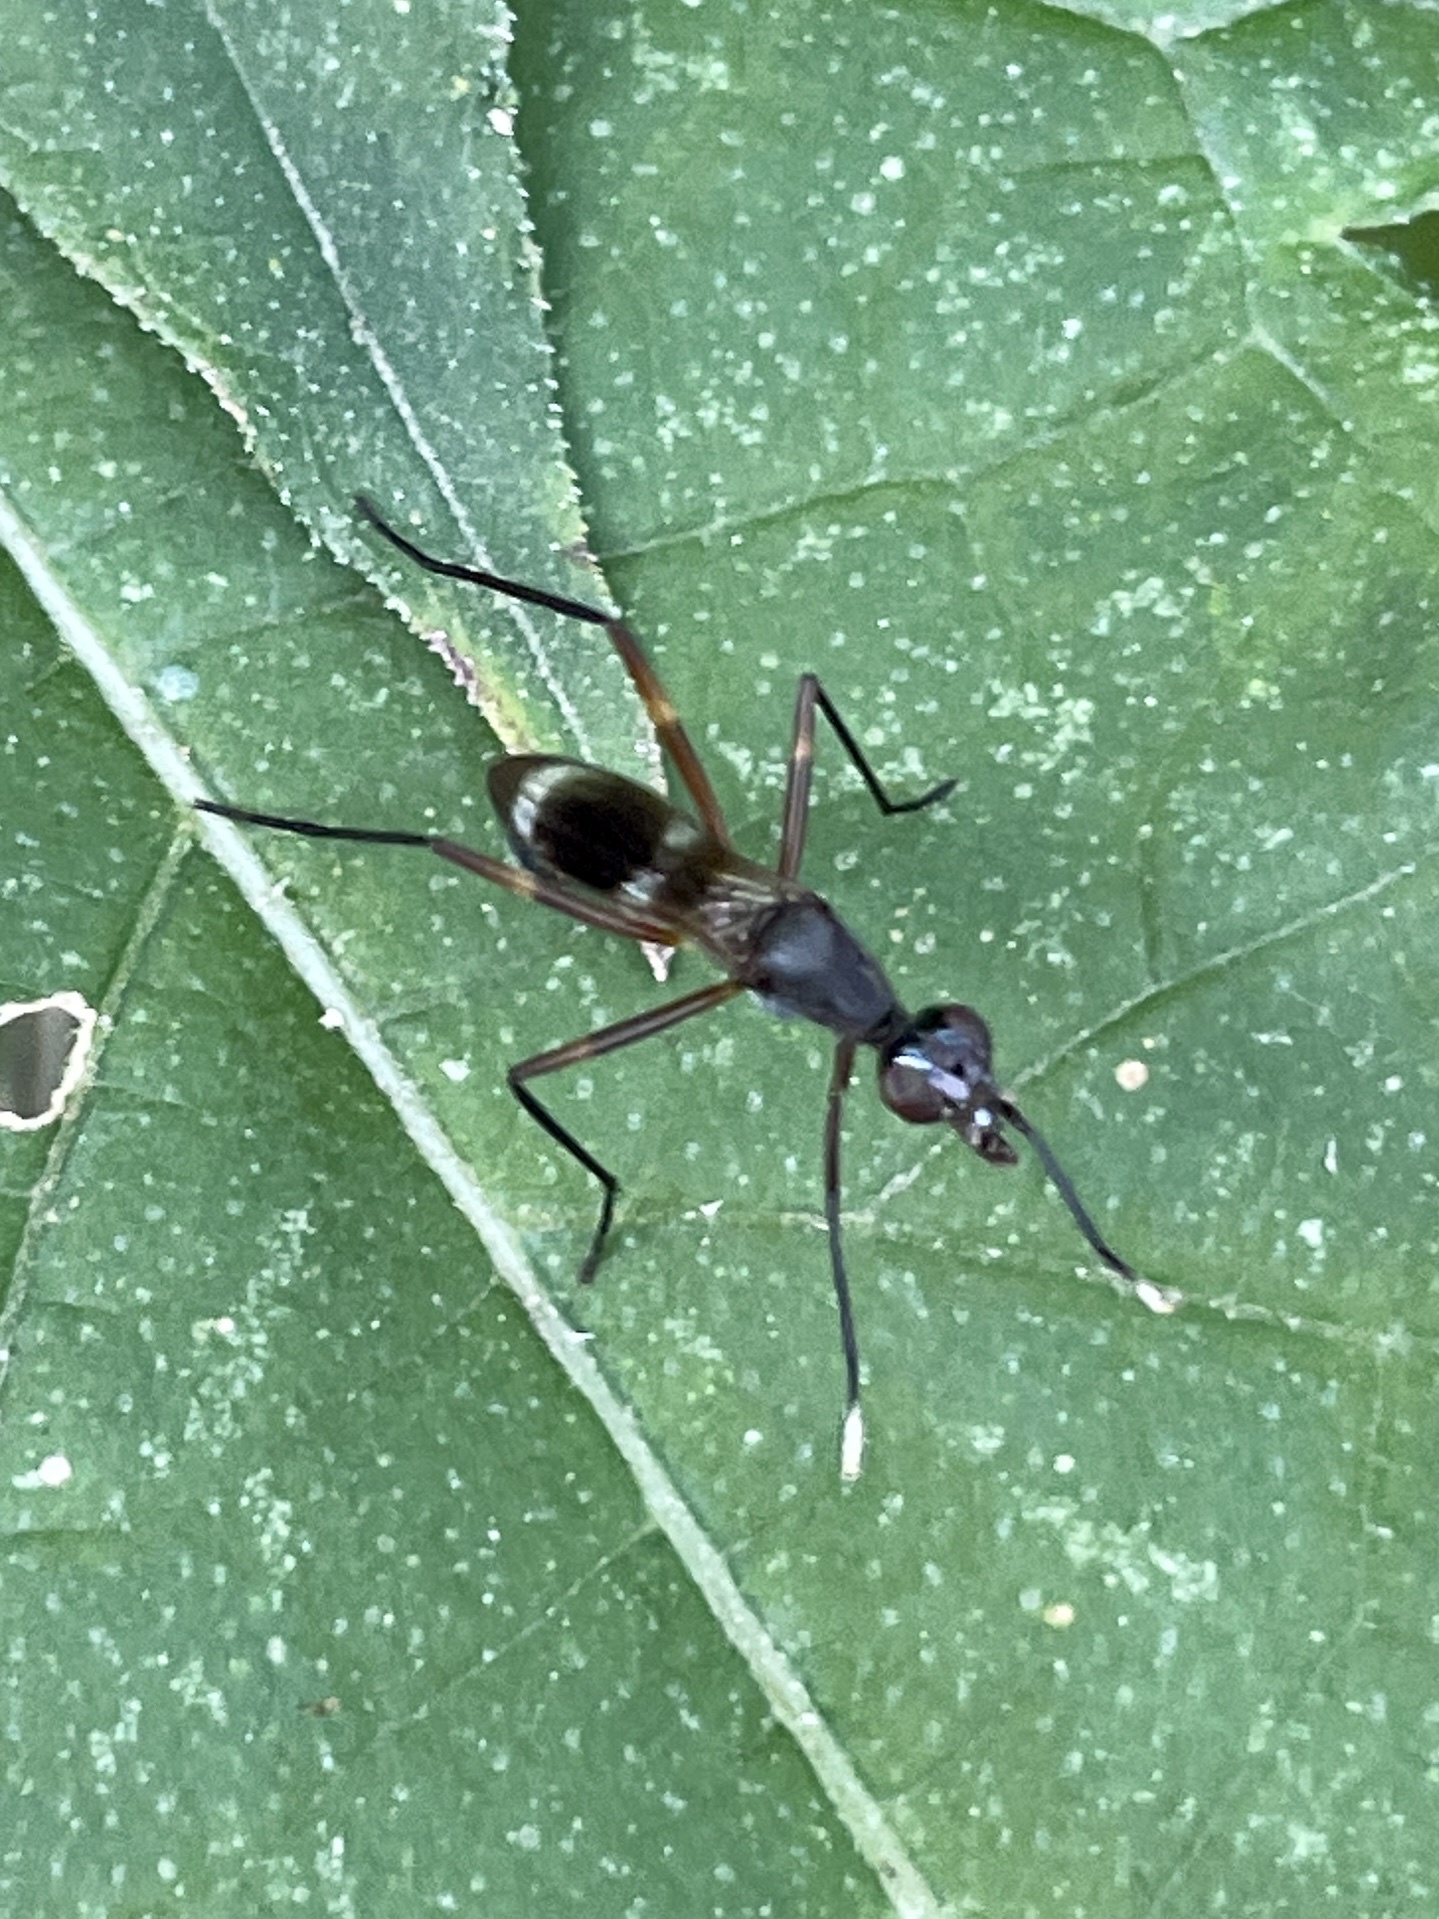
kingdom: Animalia
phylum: Arthropoda
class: Insecta
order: Diptera
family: Micropezidae
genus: Taeniaptera
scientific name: Taeniaptera trivittata
